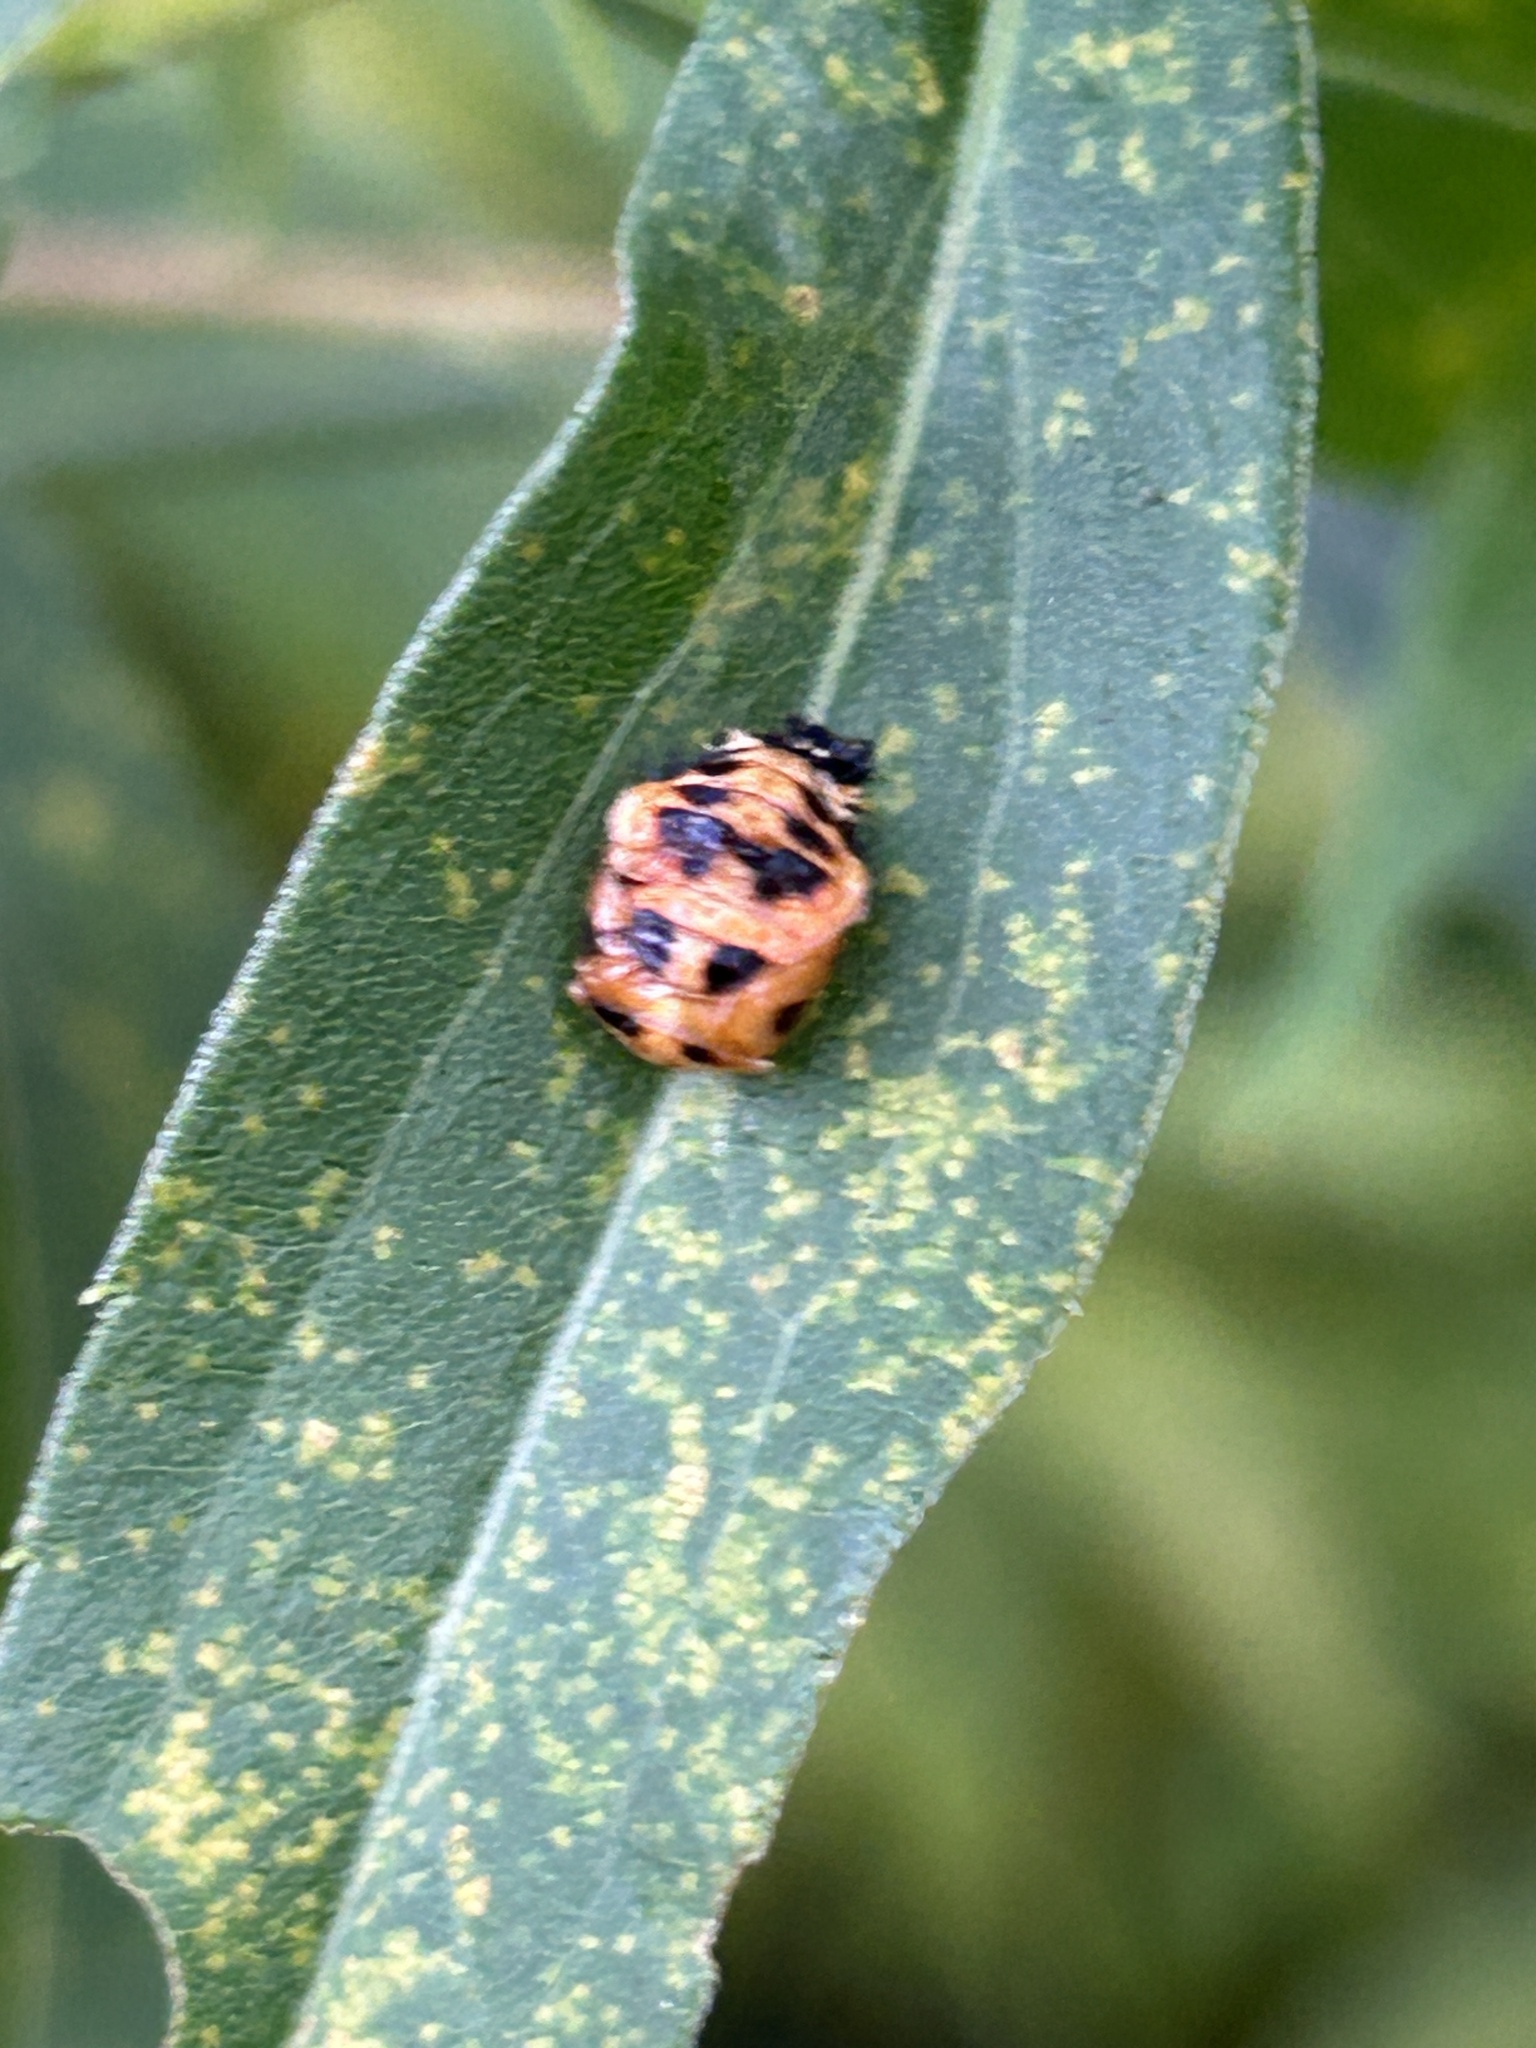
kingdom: Animalia
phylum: Arthropoda
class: Insecta
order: Coleoptera
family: Coccinellidae
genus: Harmonia
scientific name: Harmonia axyridis
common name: Harlequin ladybird
